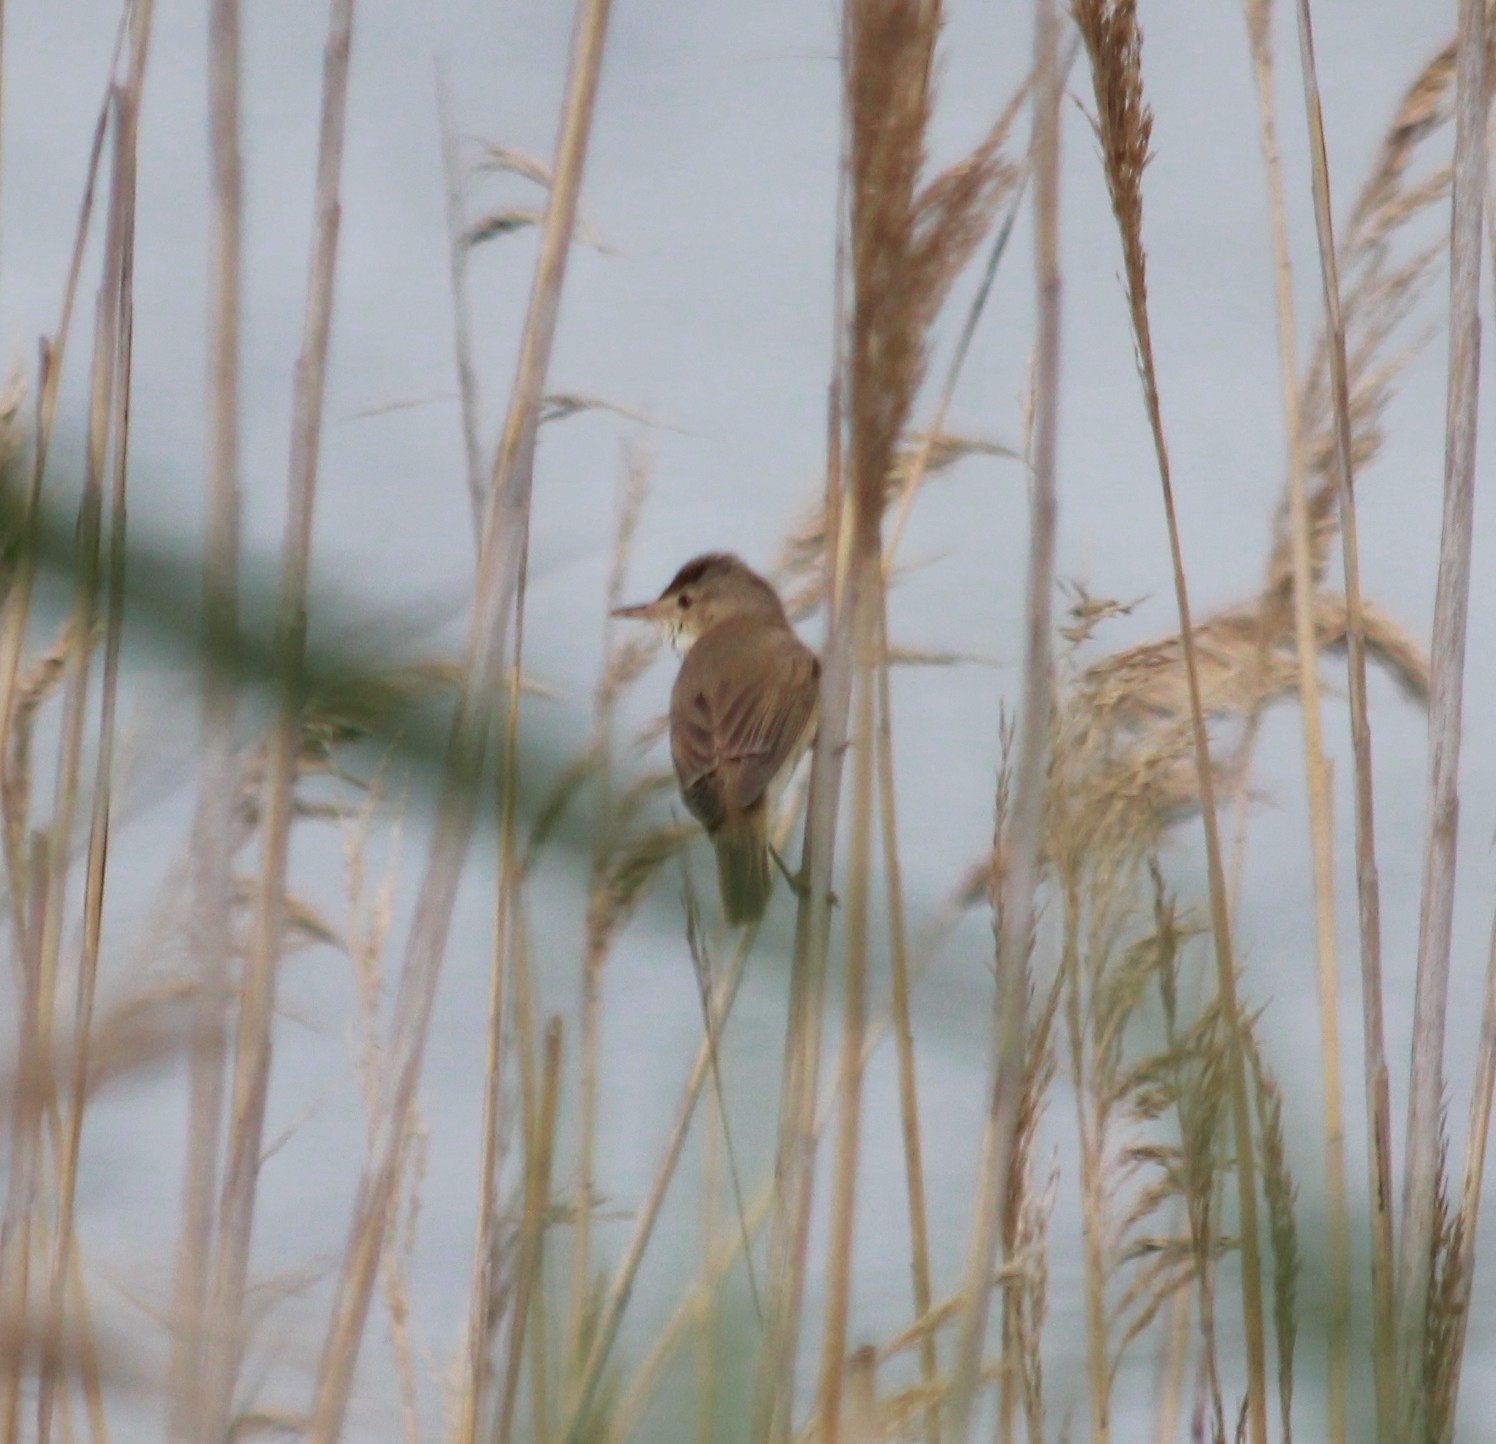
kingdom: Animalia
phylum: Chordata
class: Aves
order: Passeriformes
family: Acrocephalidae
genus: Acrocephalus
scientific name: Acrocephalus arundinaceus
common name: Great reed warbler
